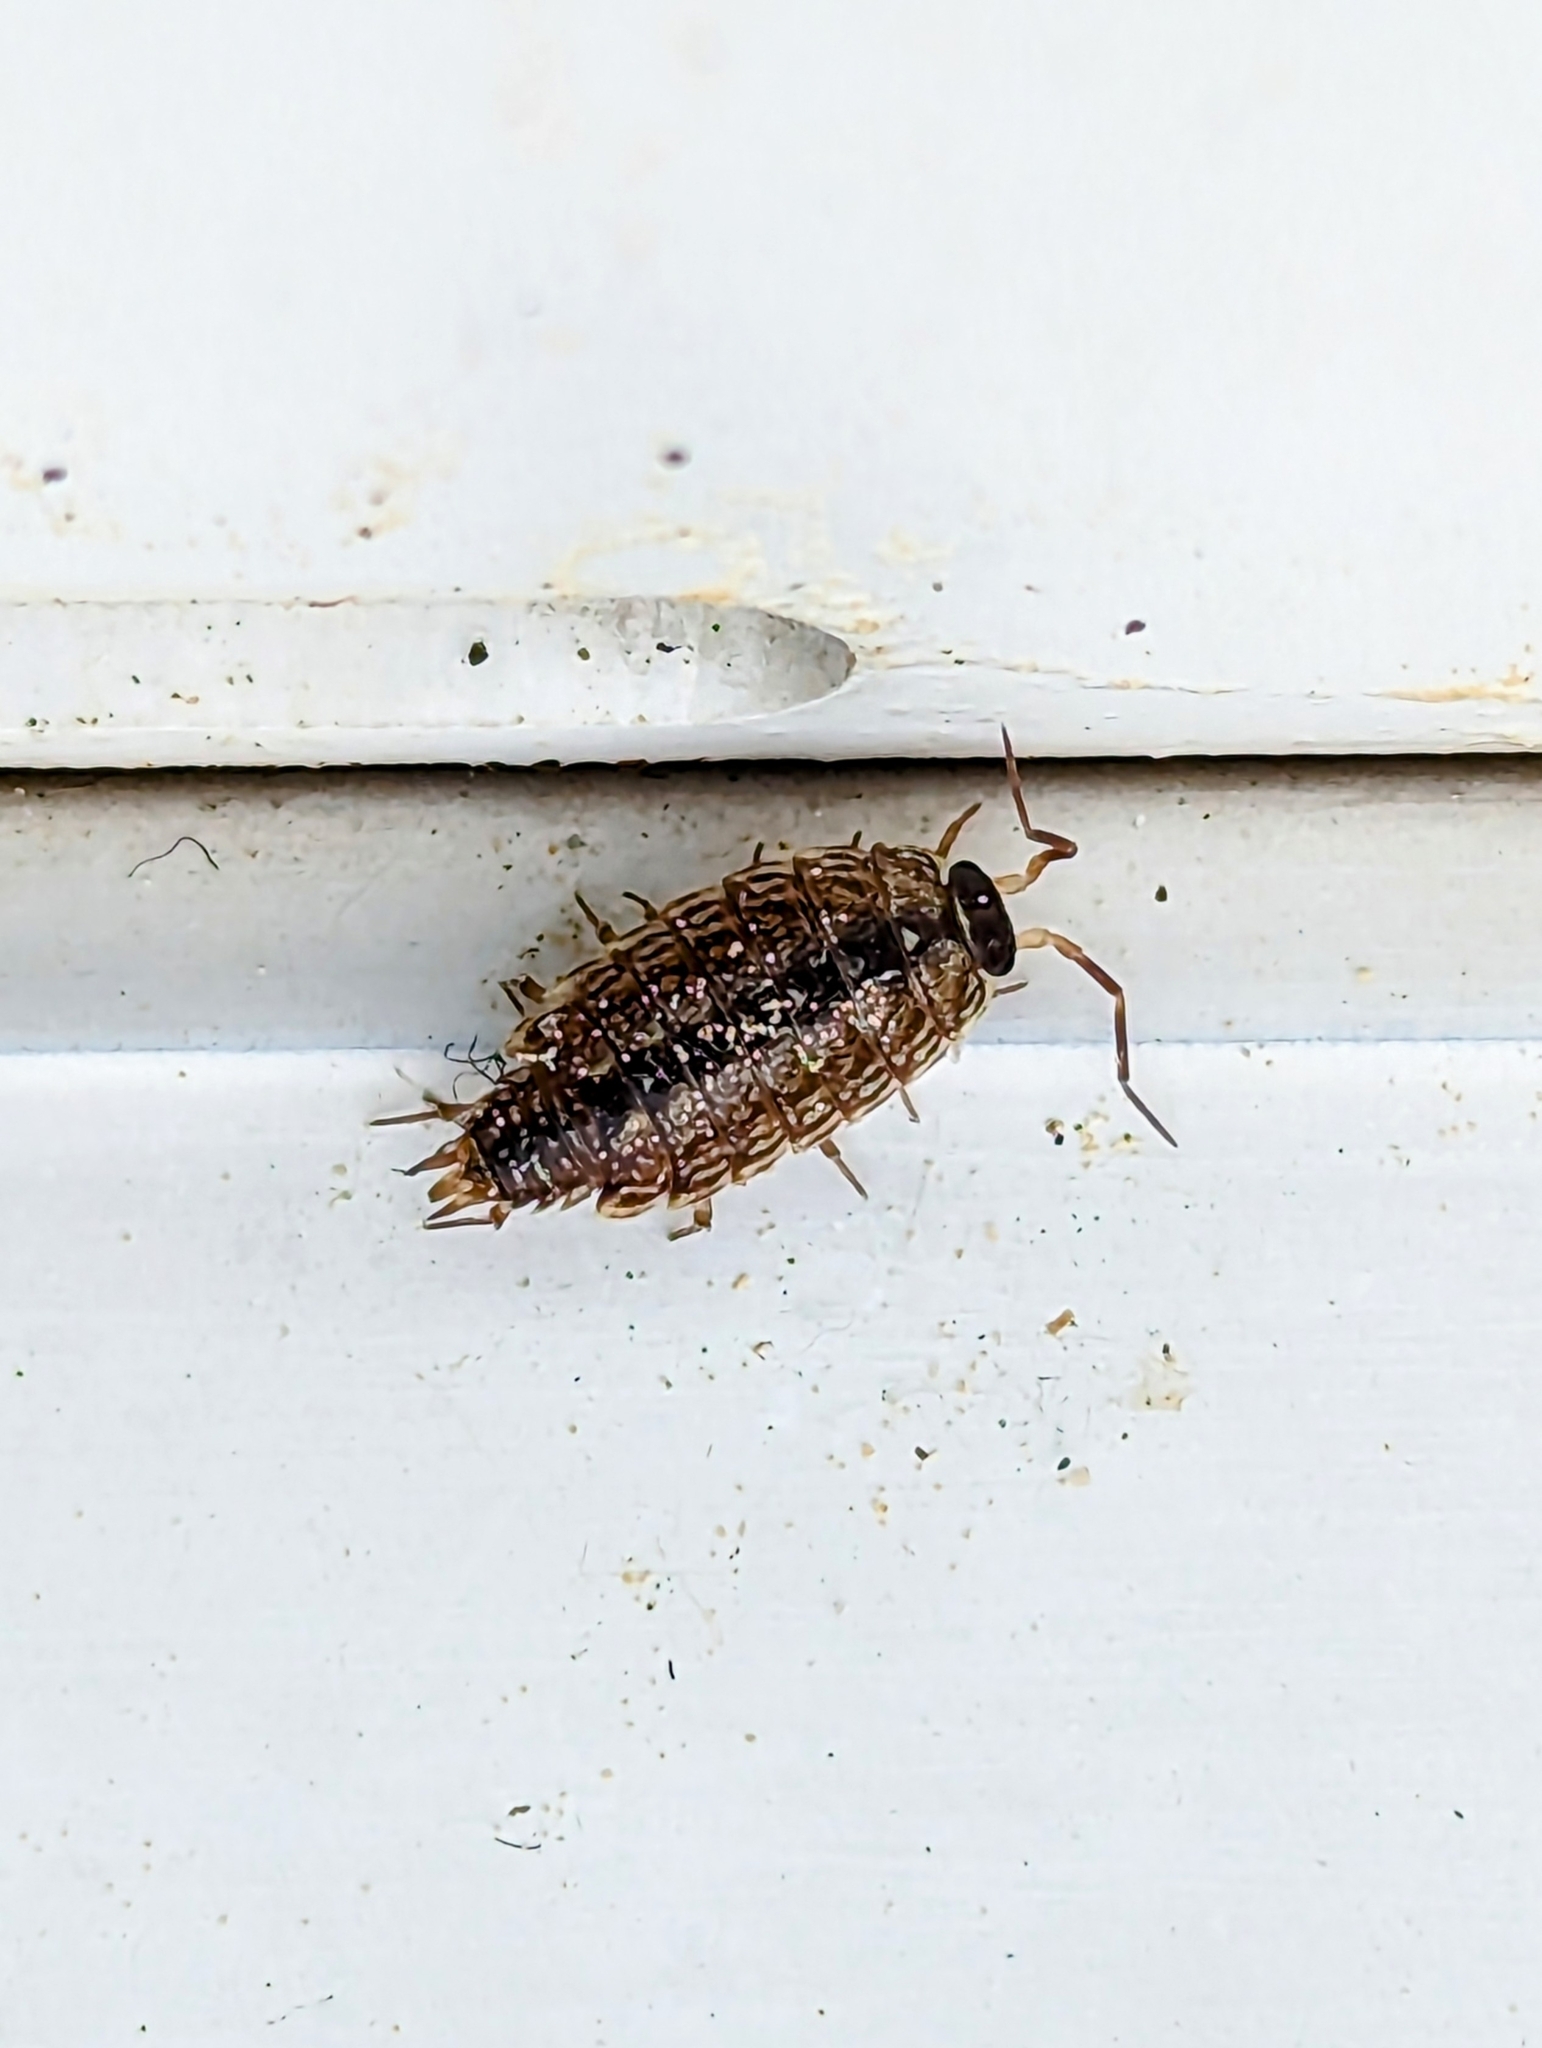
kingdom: Animalia
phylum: Arthropoda
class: Malacostraca
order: Isopoda
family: Philosciidae
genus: Philoscia
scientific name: Philoscia muscorum
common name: Common striped woodlouse
